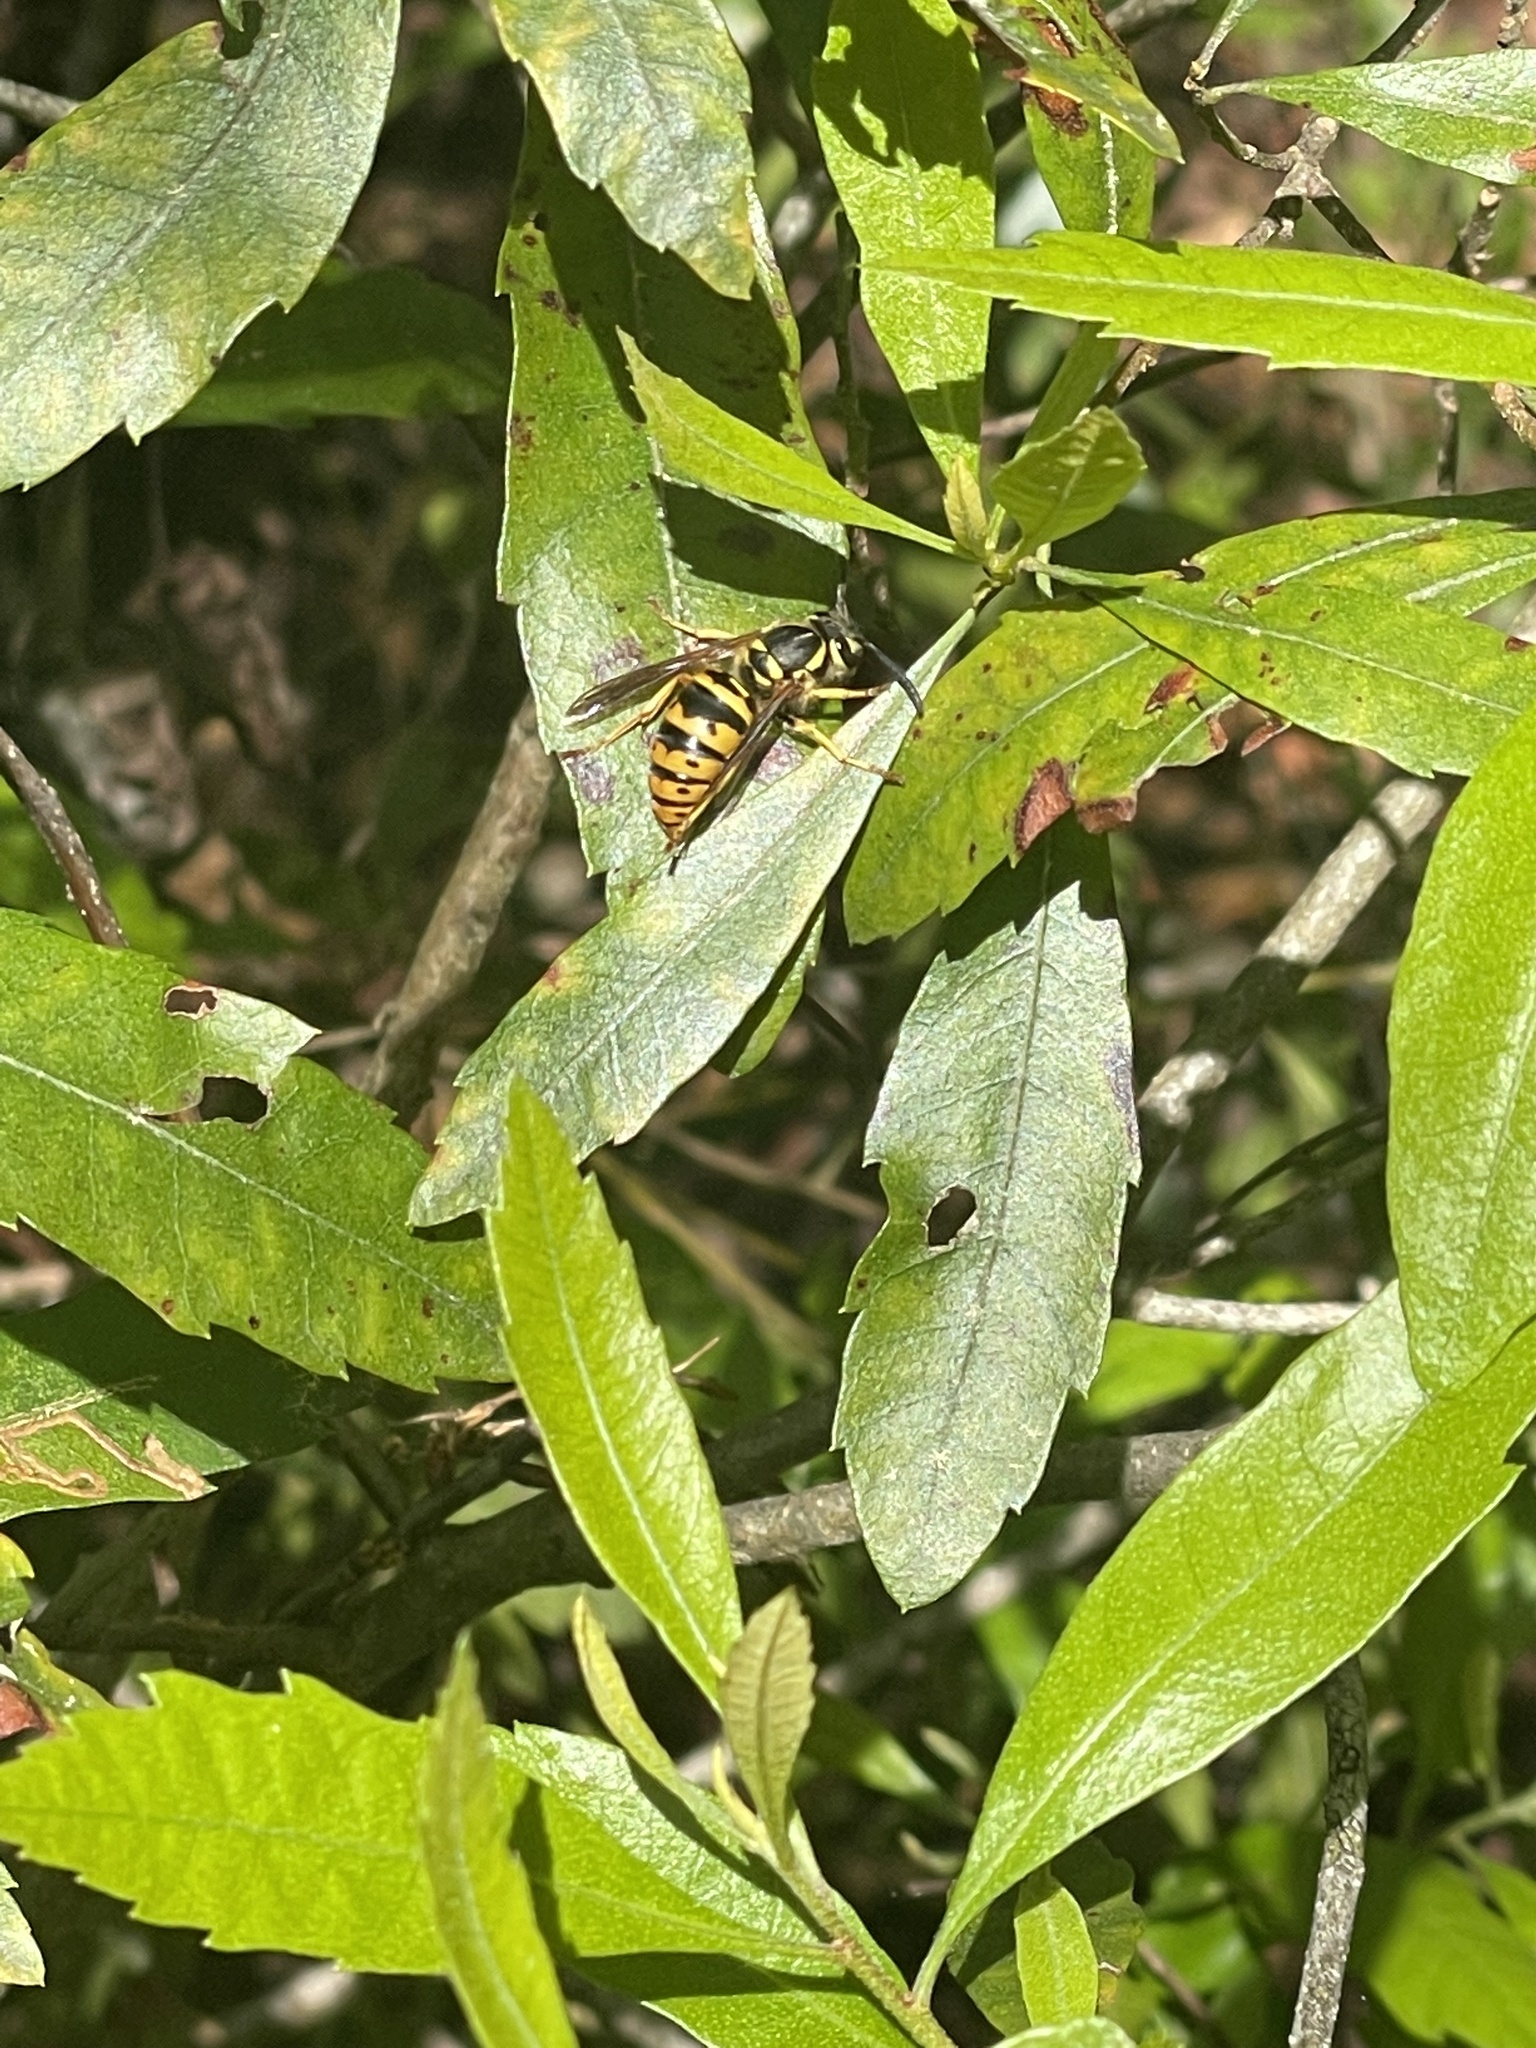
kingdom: Animalia
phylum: Arthropoda
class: Insecta
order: Hymenoptera
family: Vespidae
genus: Vespula
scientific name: Vespula maculifrons
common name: Eastern yellowjacket
